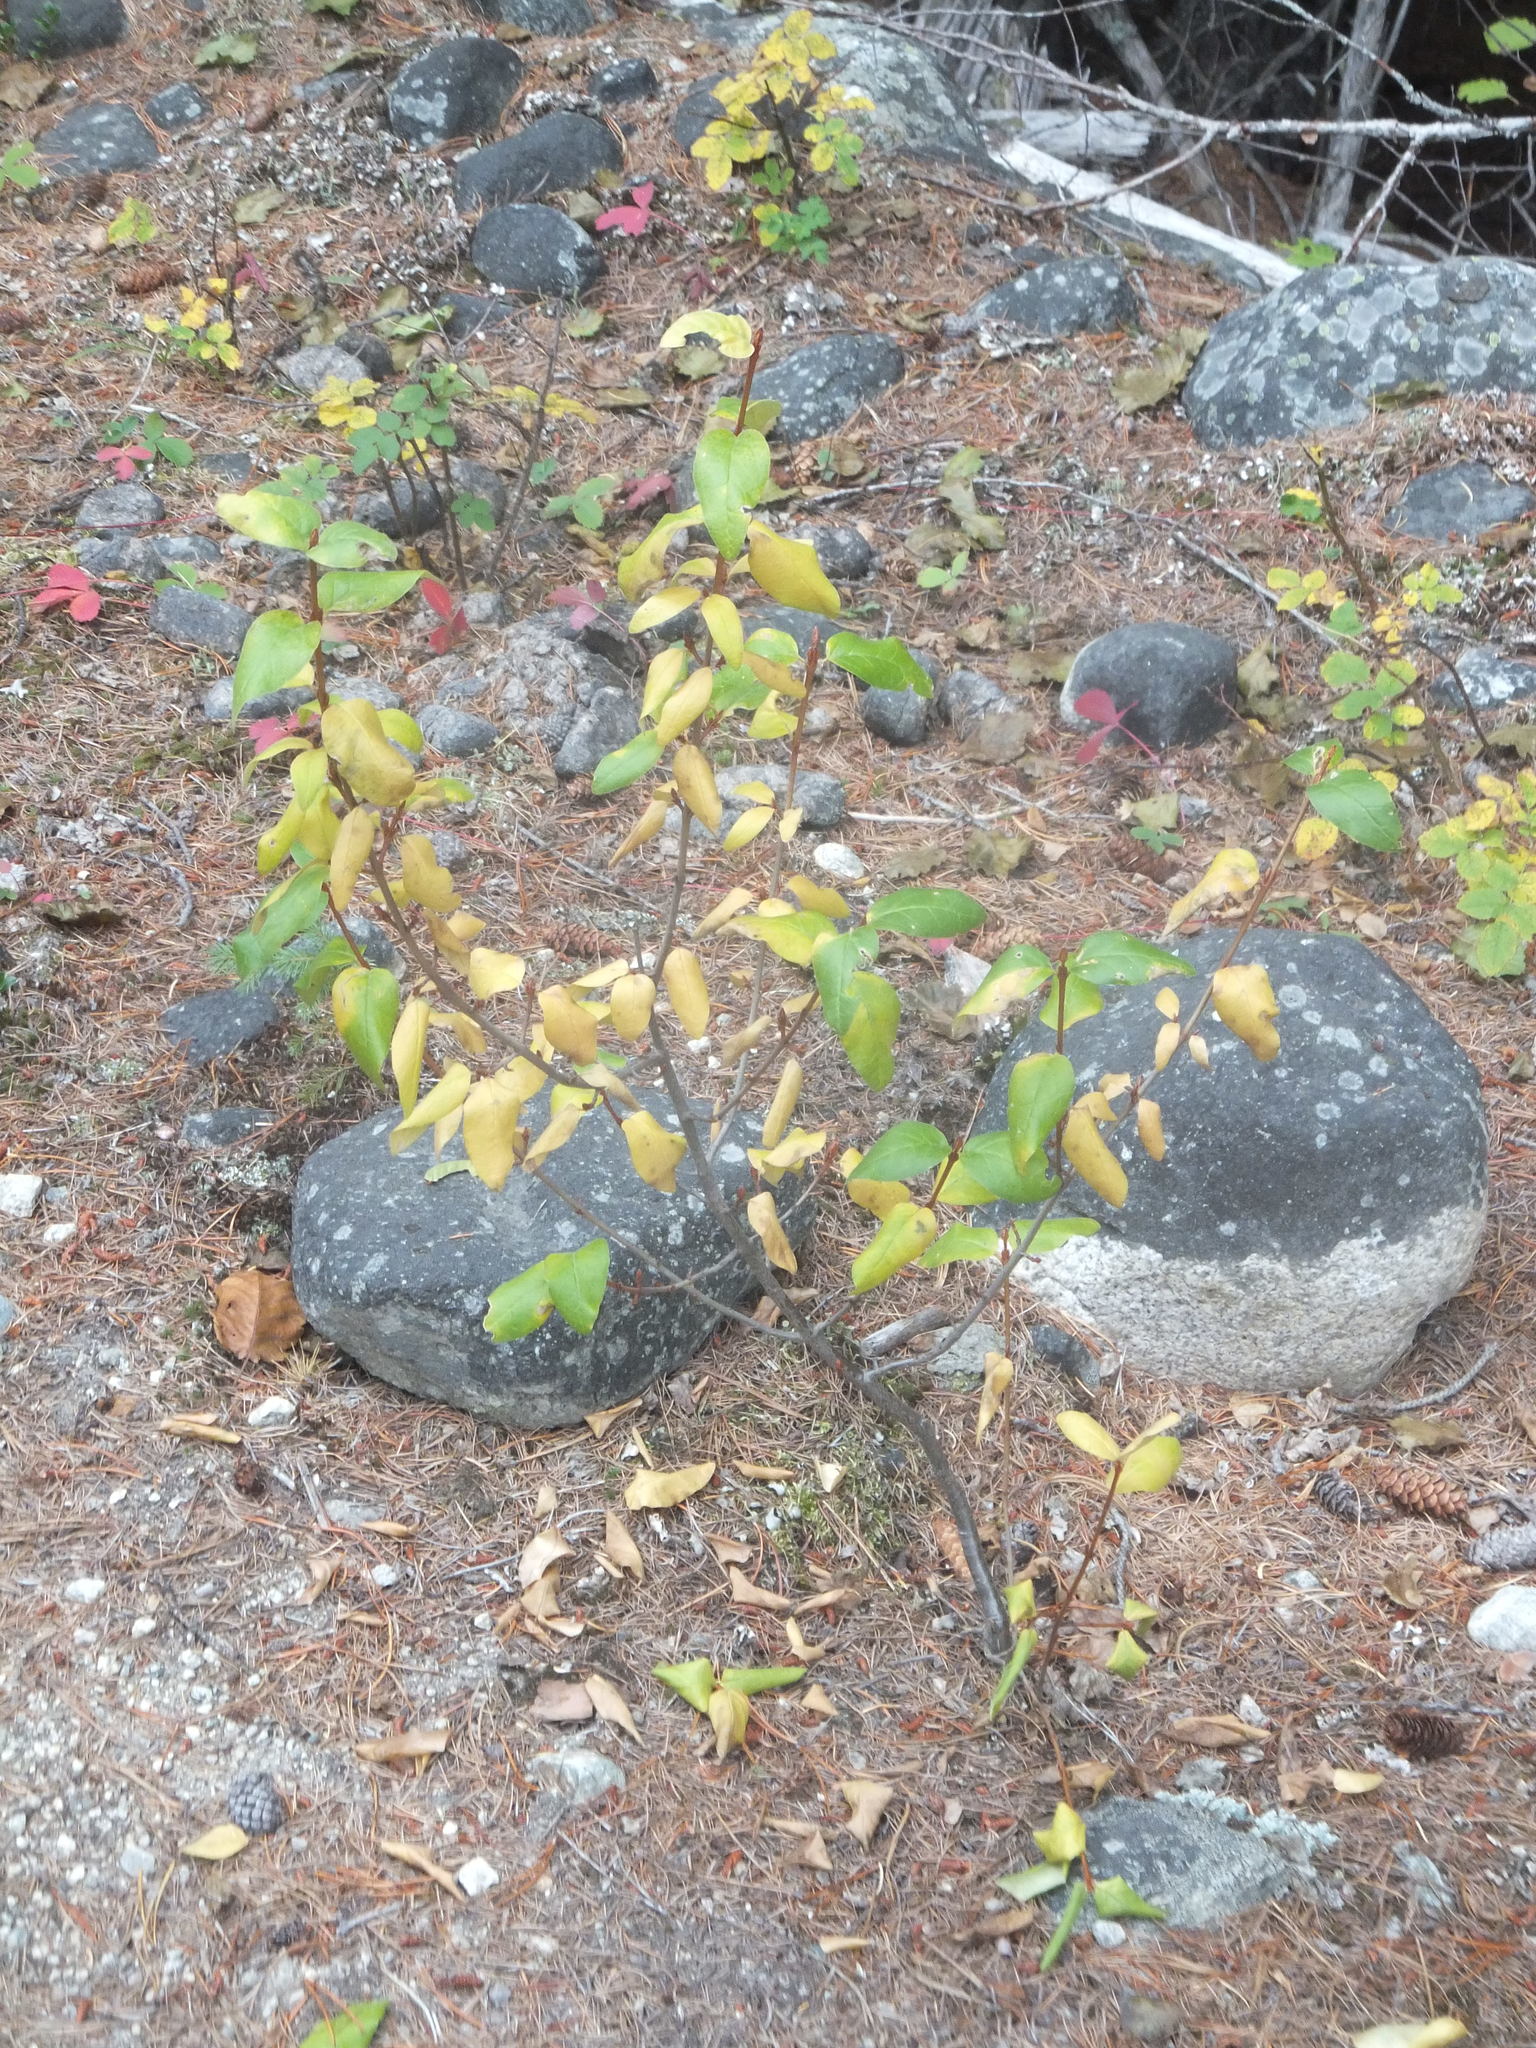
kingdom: Plantae
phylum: Tracheophyta
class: Magnoliopsida
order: Rosales
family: Elaeagnaceae
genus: Shepherdia
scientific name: Shepherdia canadensis
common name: Soapberry
